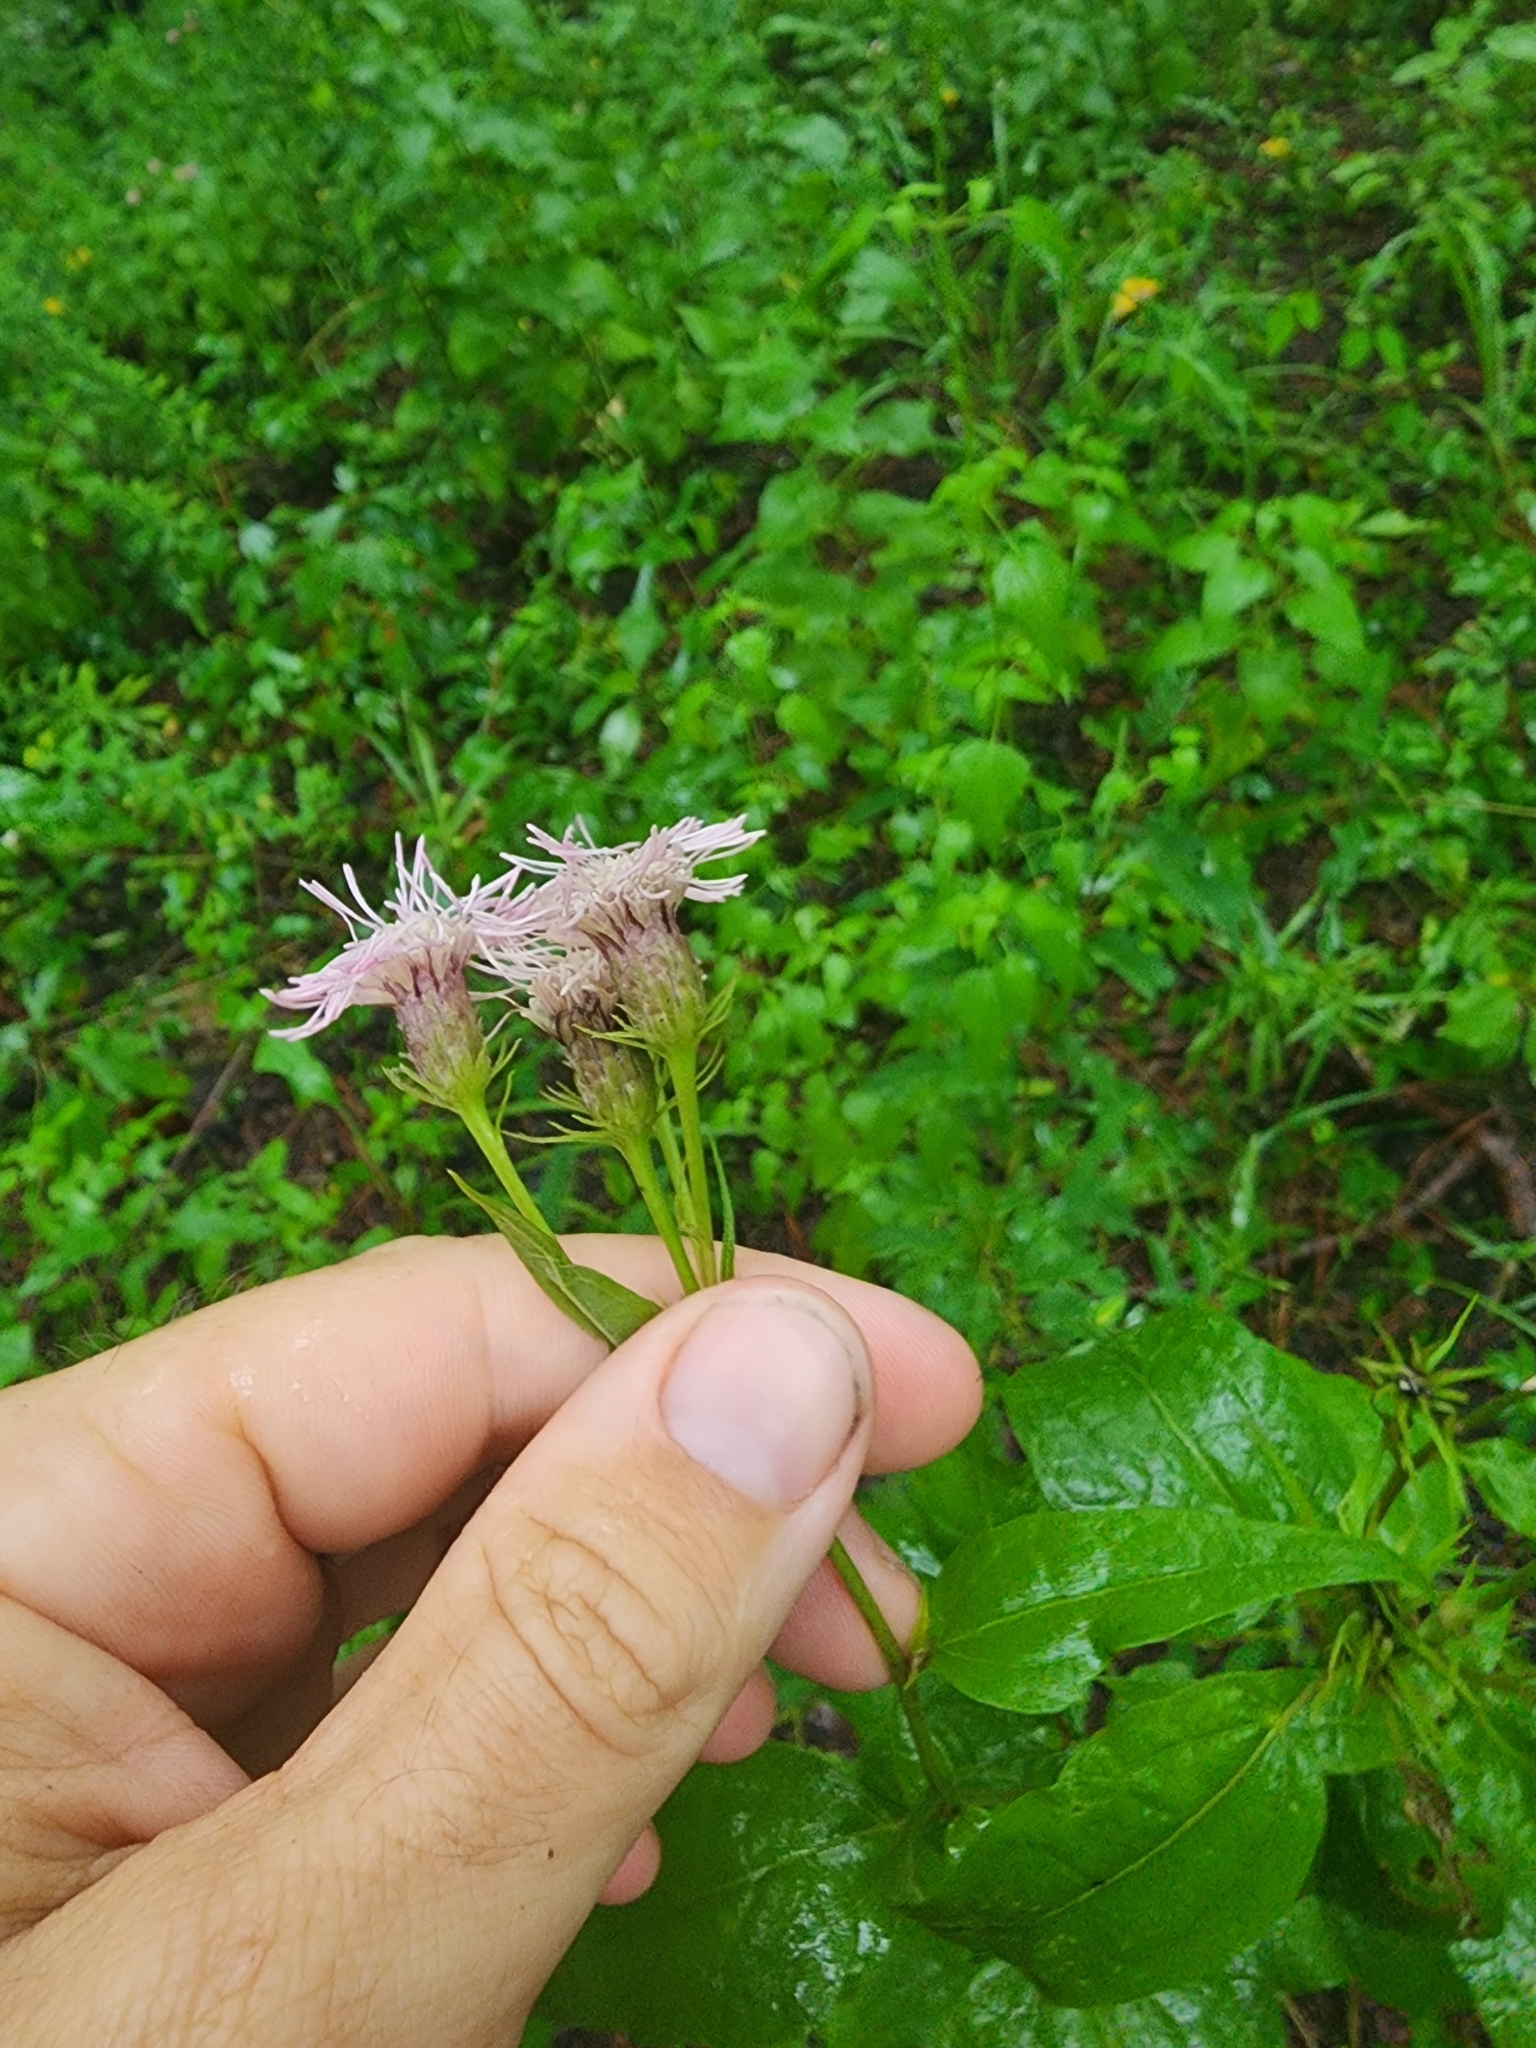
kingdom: Plantae
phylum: Tracheophyta
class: Magnoliopsida
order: Asterales
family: Asteraceae
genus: Brickellia
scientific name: Brickellia cordifolia
